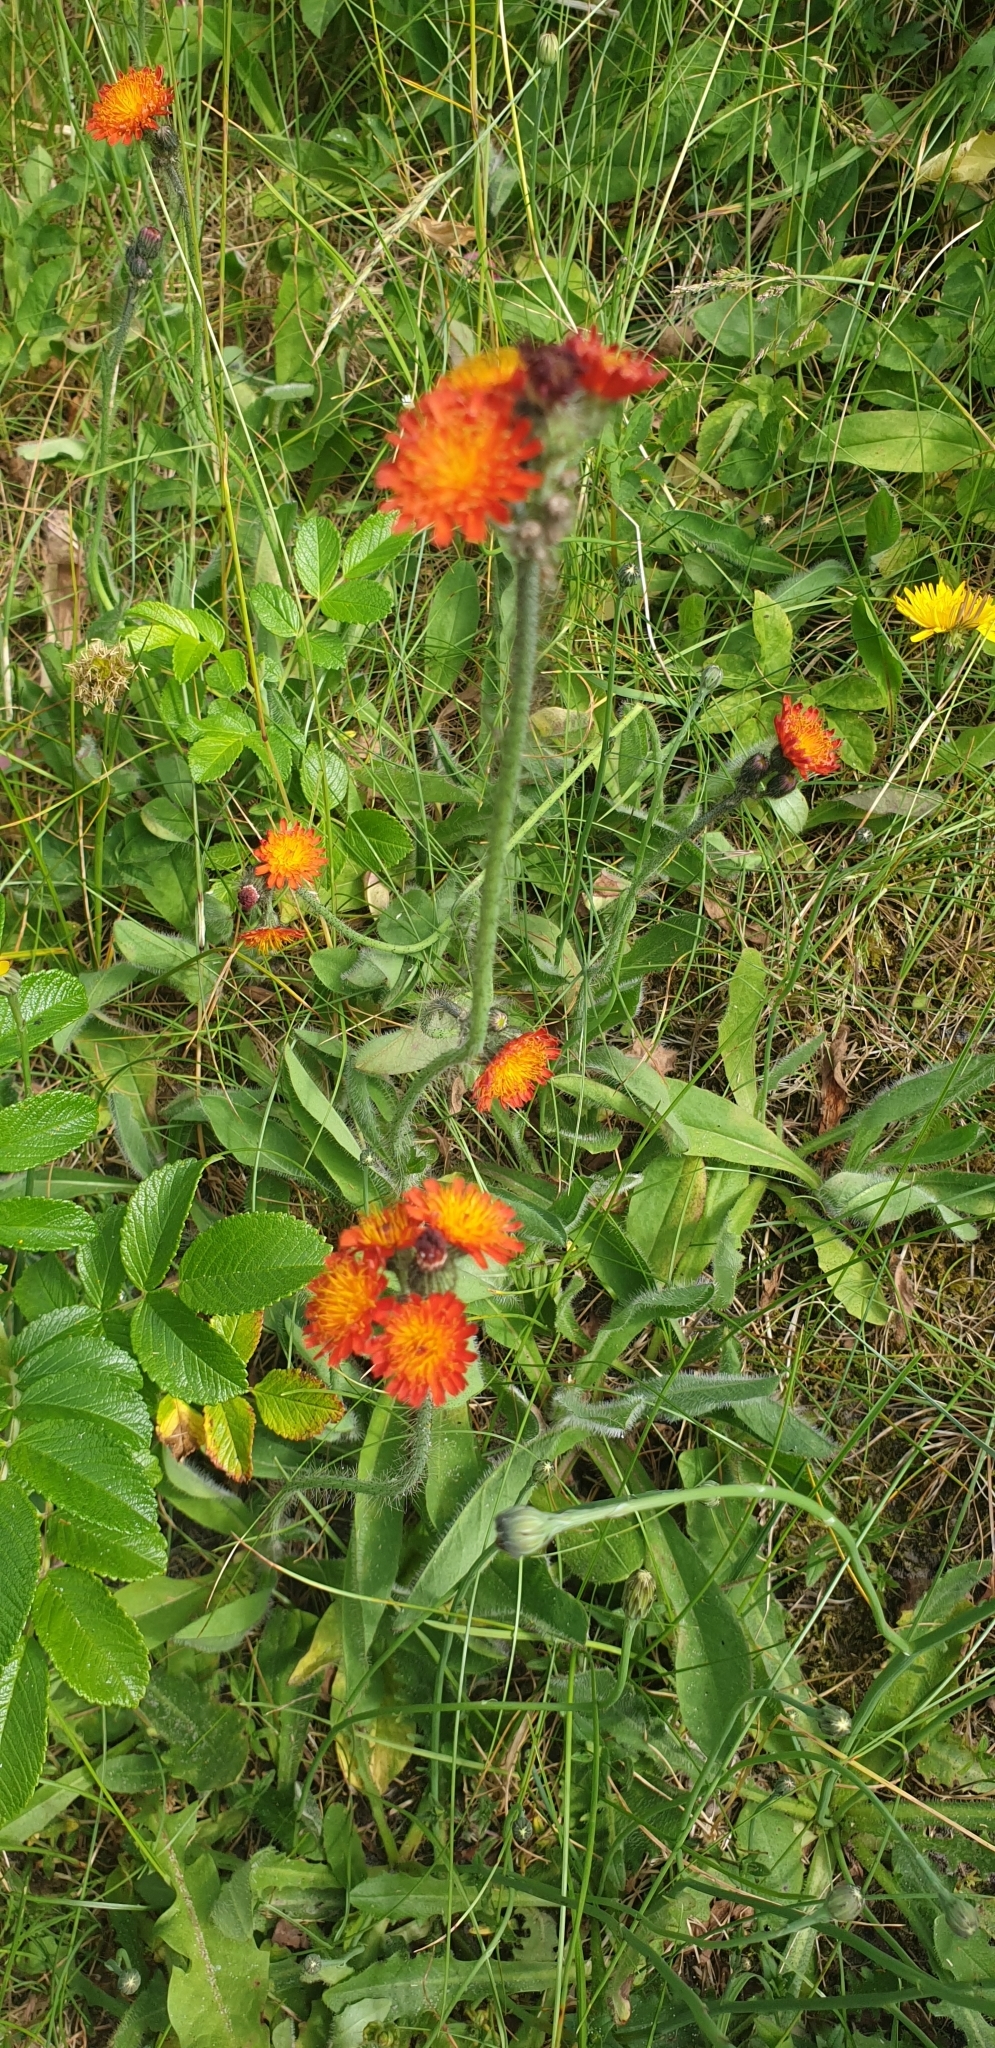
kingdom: Plantae
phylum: Tracheophyta
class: Magnoliopsida
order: Asterales
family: Asteraceae
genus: Pilosella
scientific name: Pilosella aurantiaca
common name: Fox-and-cubs
